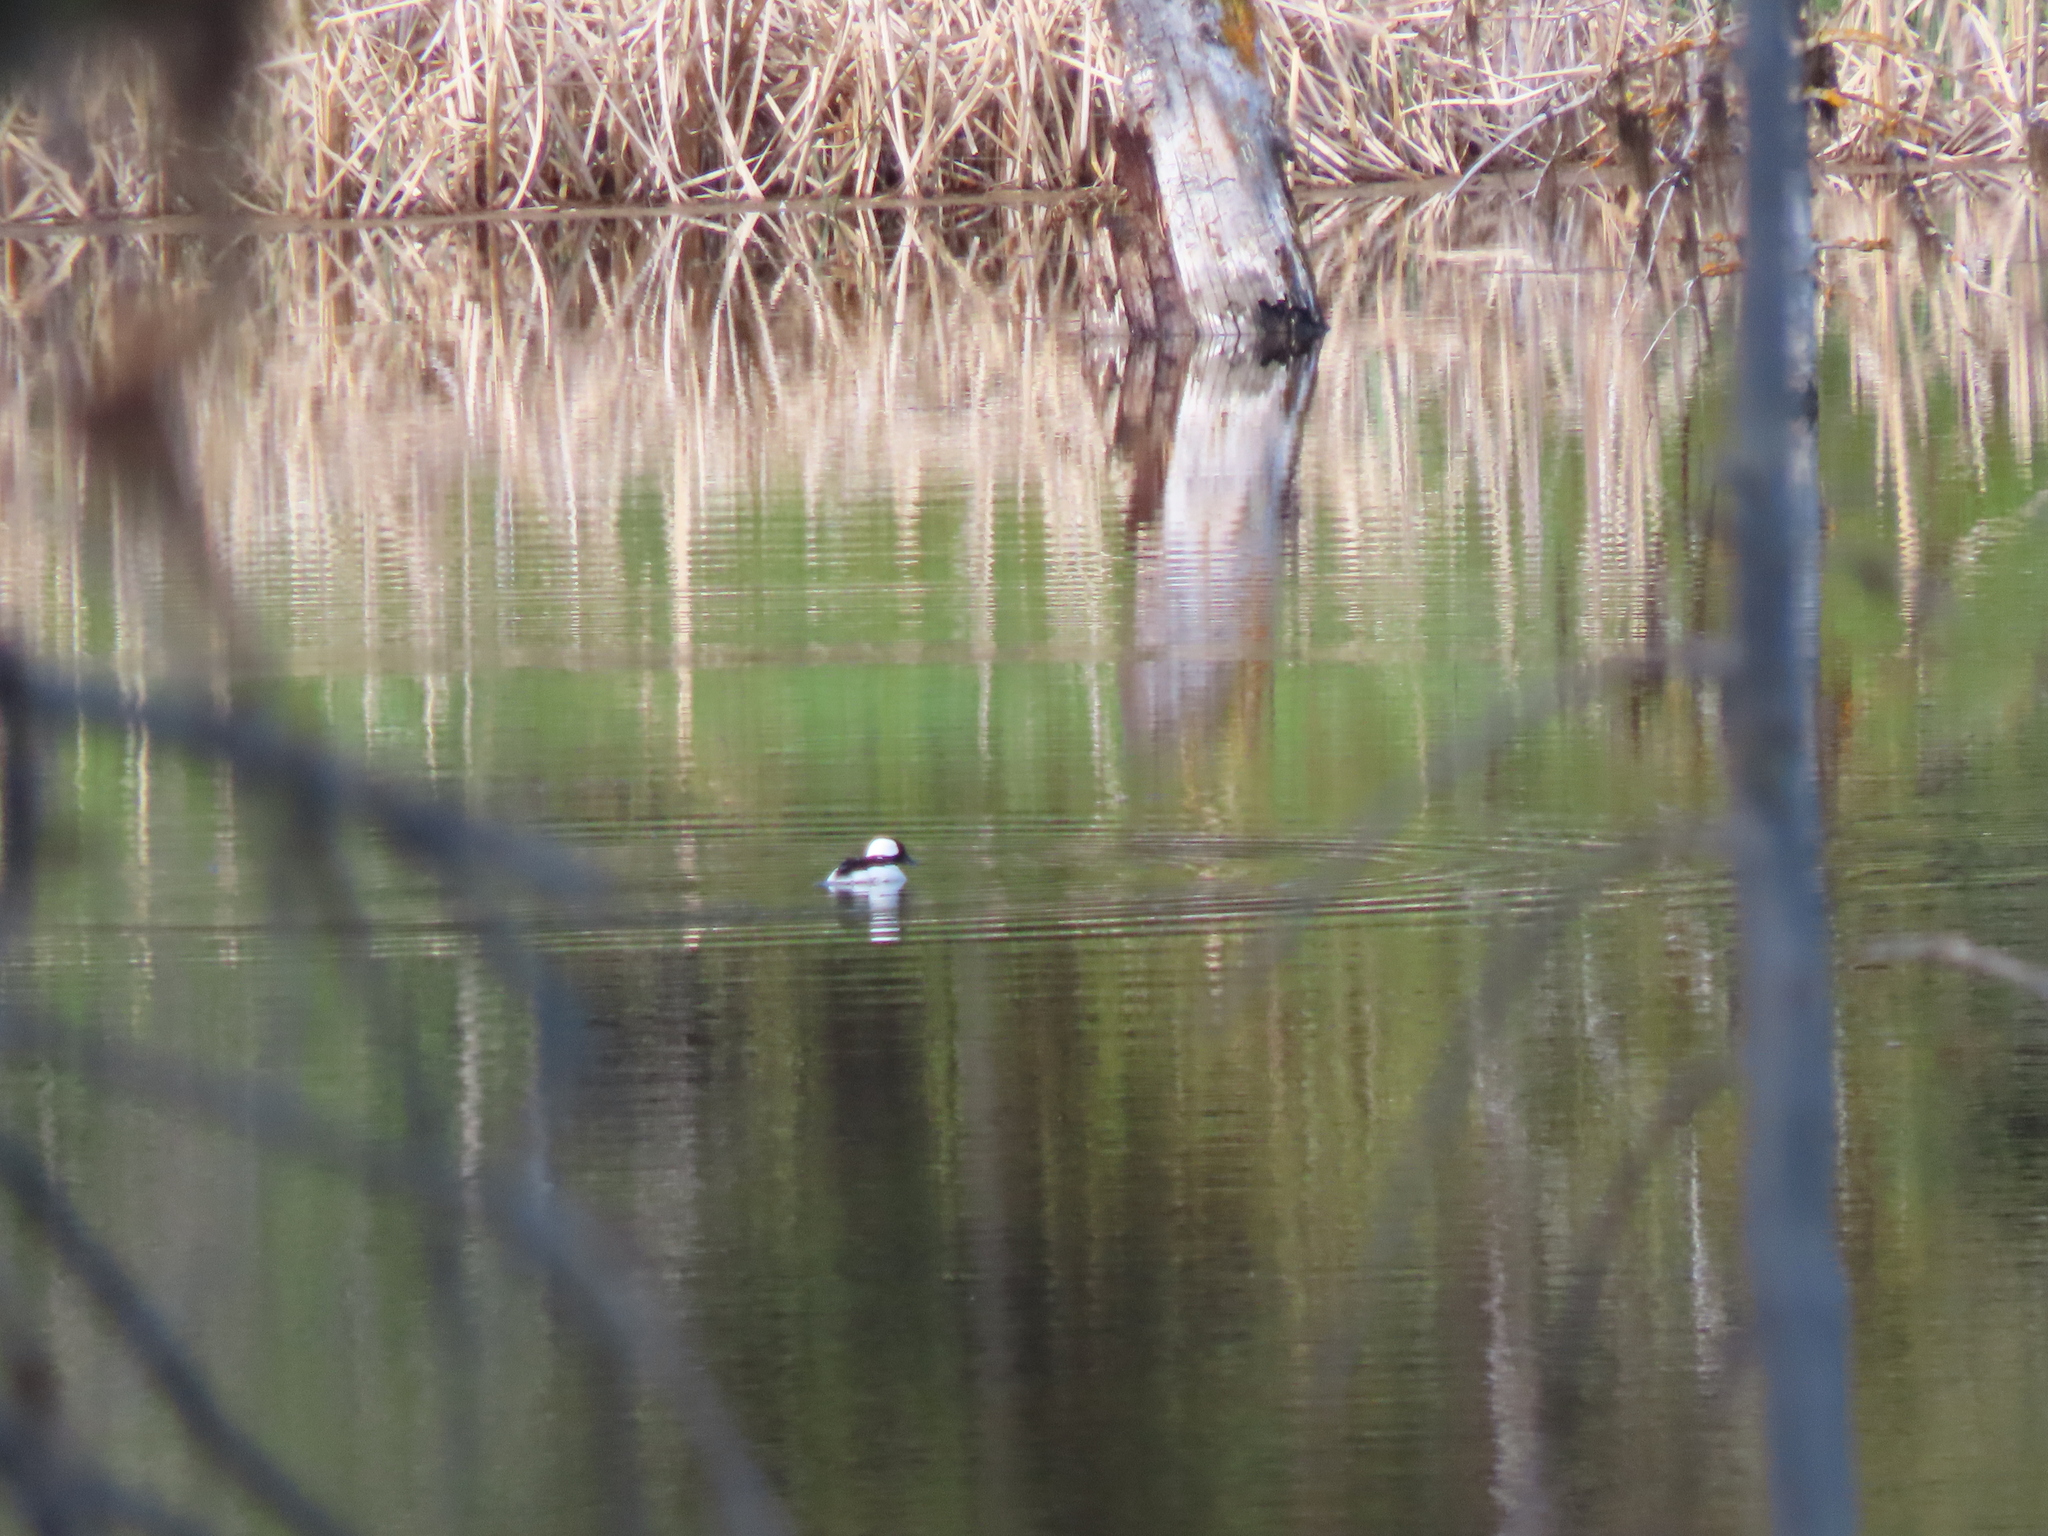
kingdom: Animalia
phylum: Chordata
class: Aves
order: Anseriformes
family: Anatidae
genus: Bucephala
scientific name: Bucephala albeola
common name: Bufflehead
